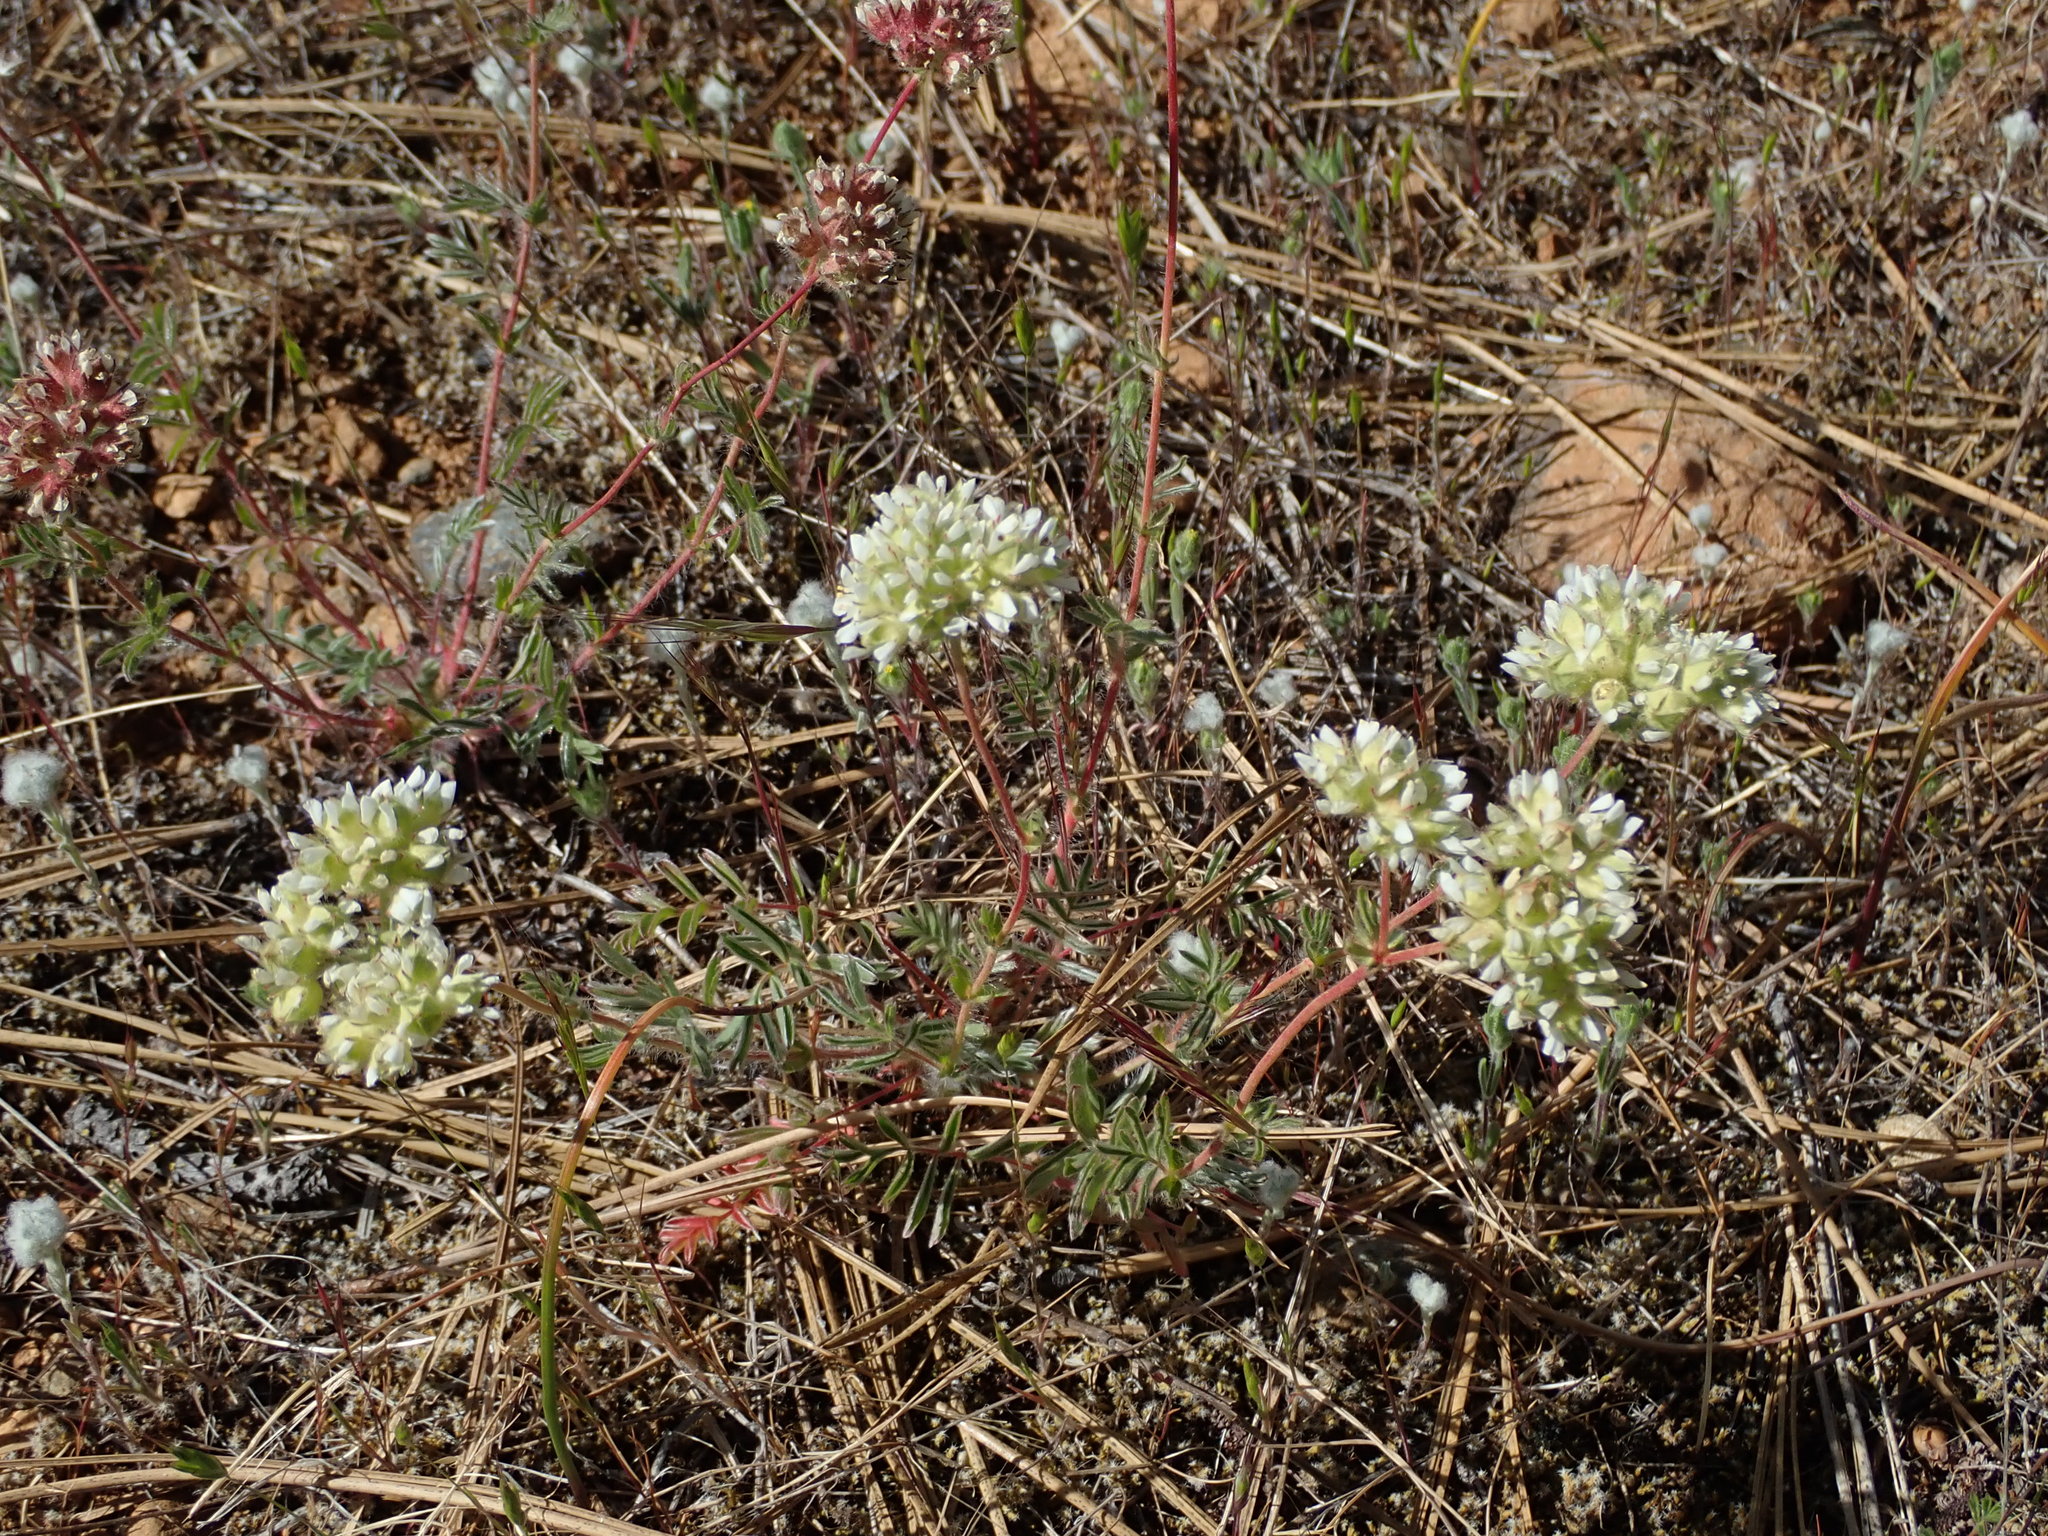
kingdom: Plantae
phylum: Tracheophyta
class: Magnoliopsida
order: Rosales
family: Rosaceae
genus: Potentilla
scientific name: Potentilla congesta
